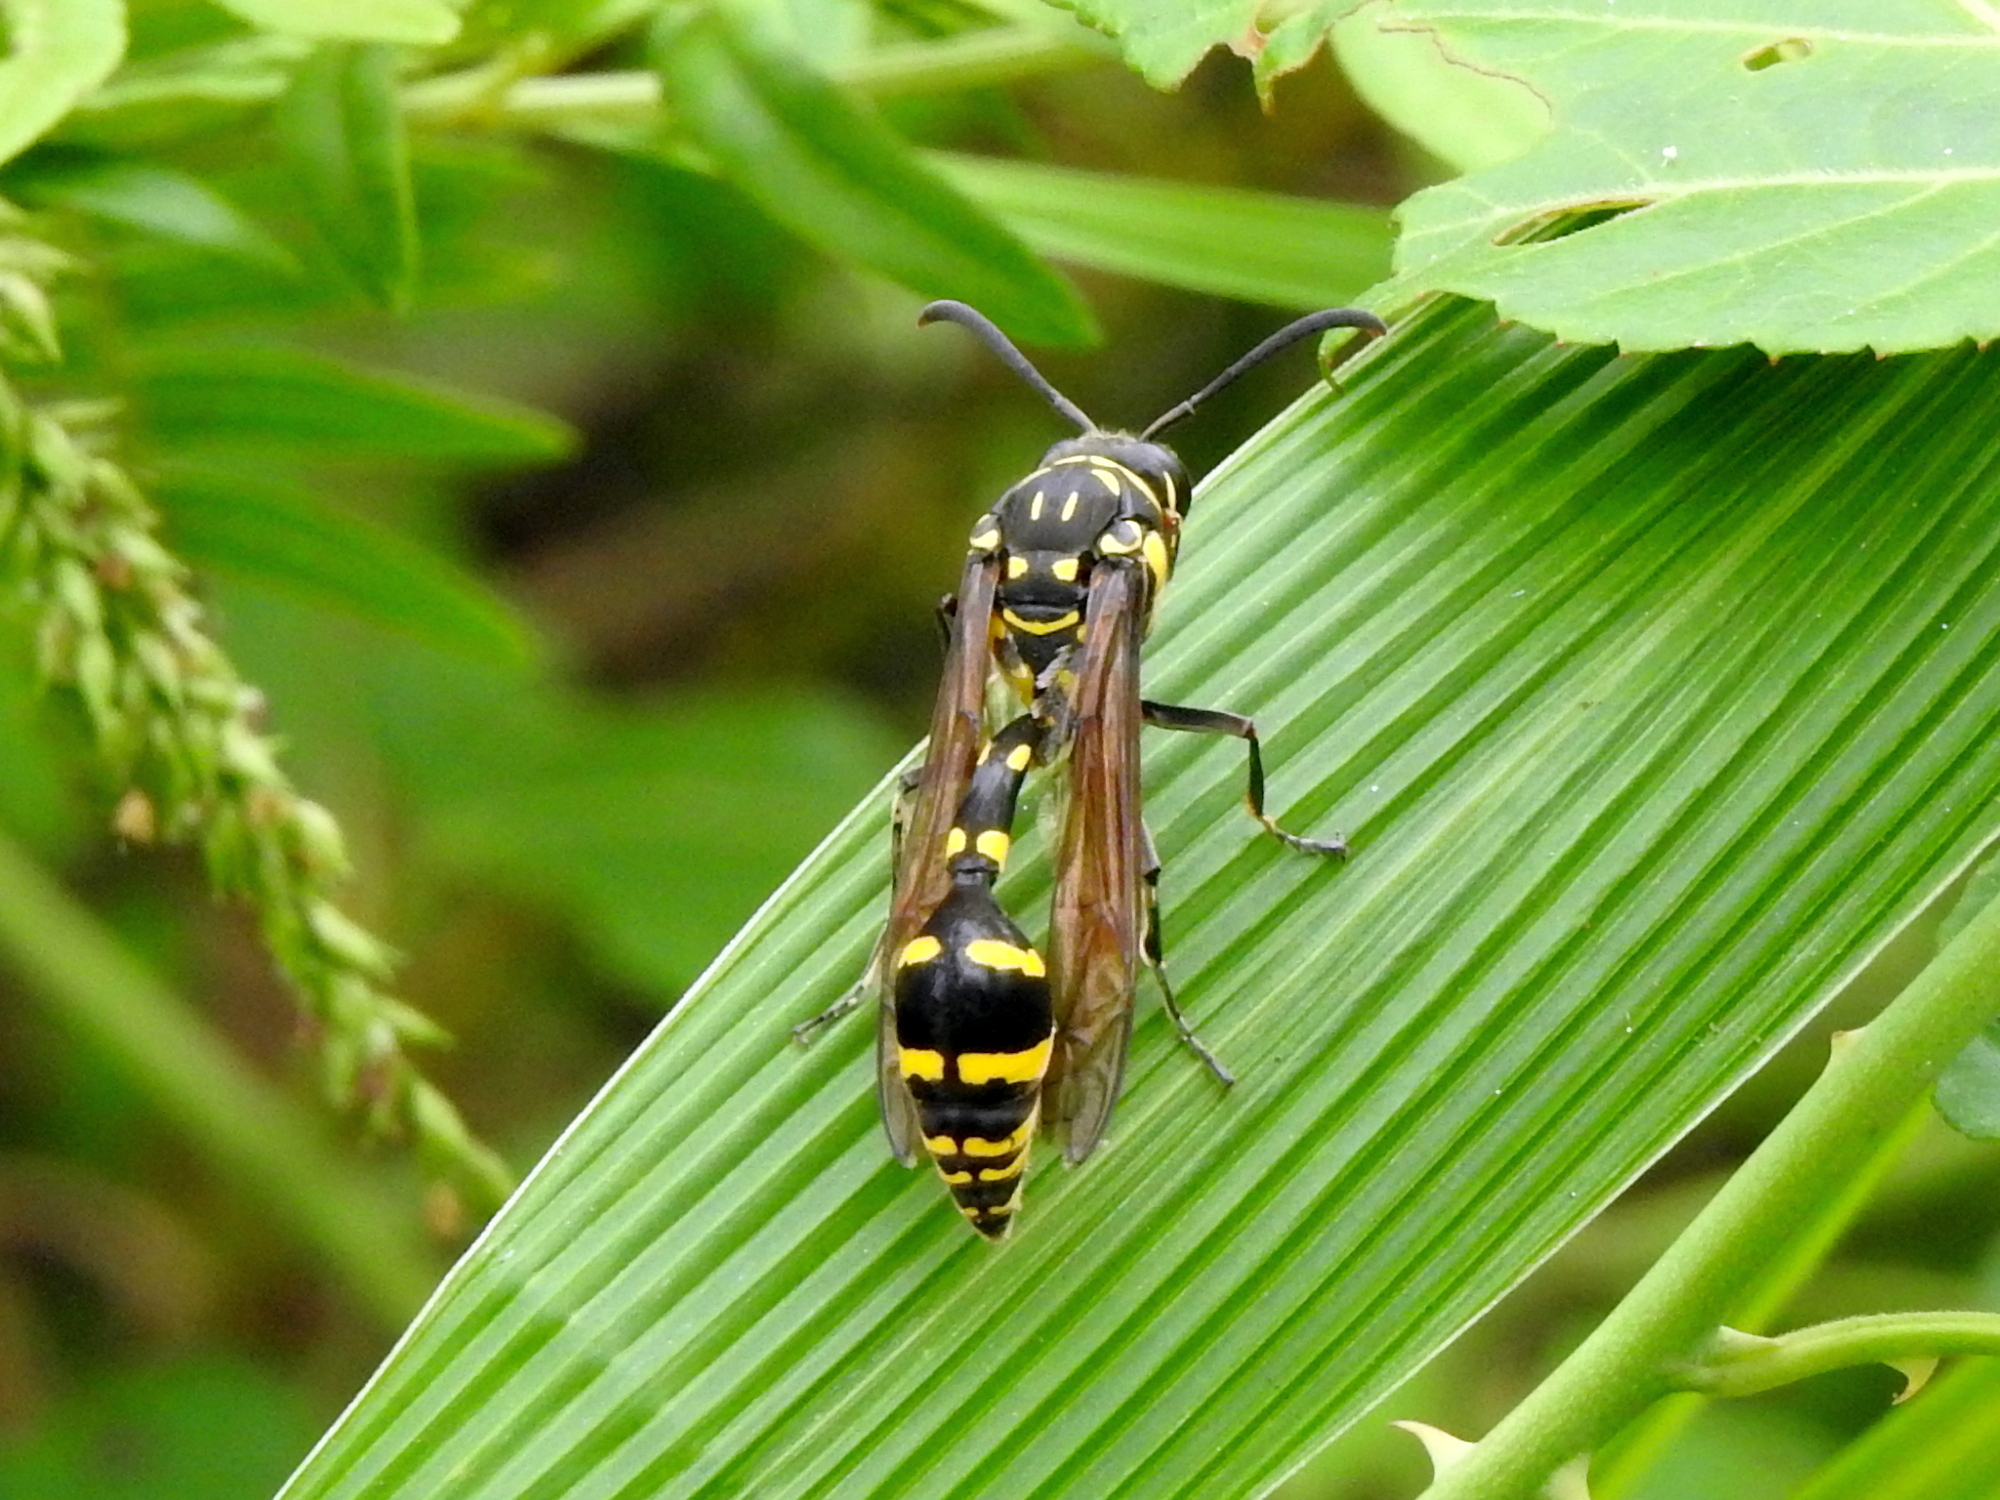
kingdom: Animalia
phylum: Arthropoda
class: Insecta
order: Hymenoptera
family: Eumenidae
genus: Phimenes
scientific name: Phimenes flavopictus
